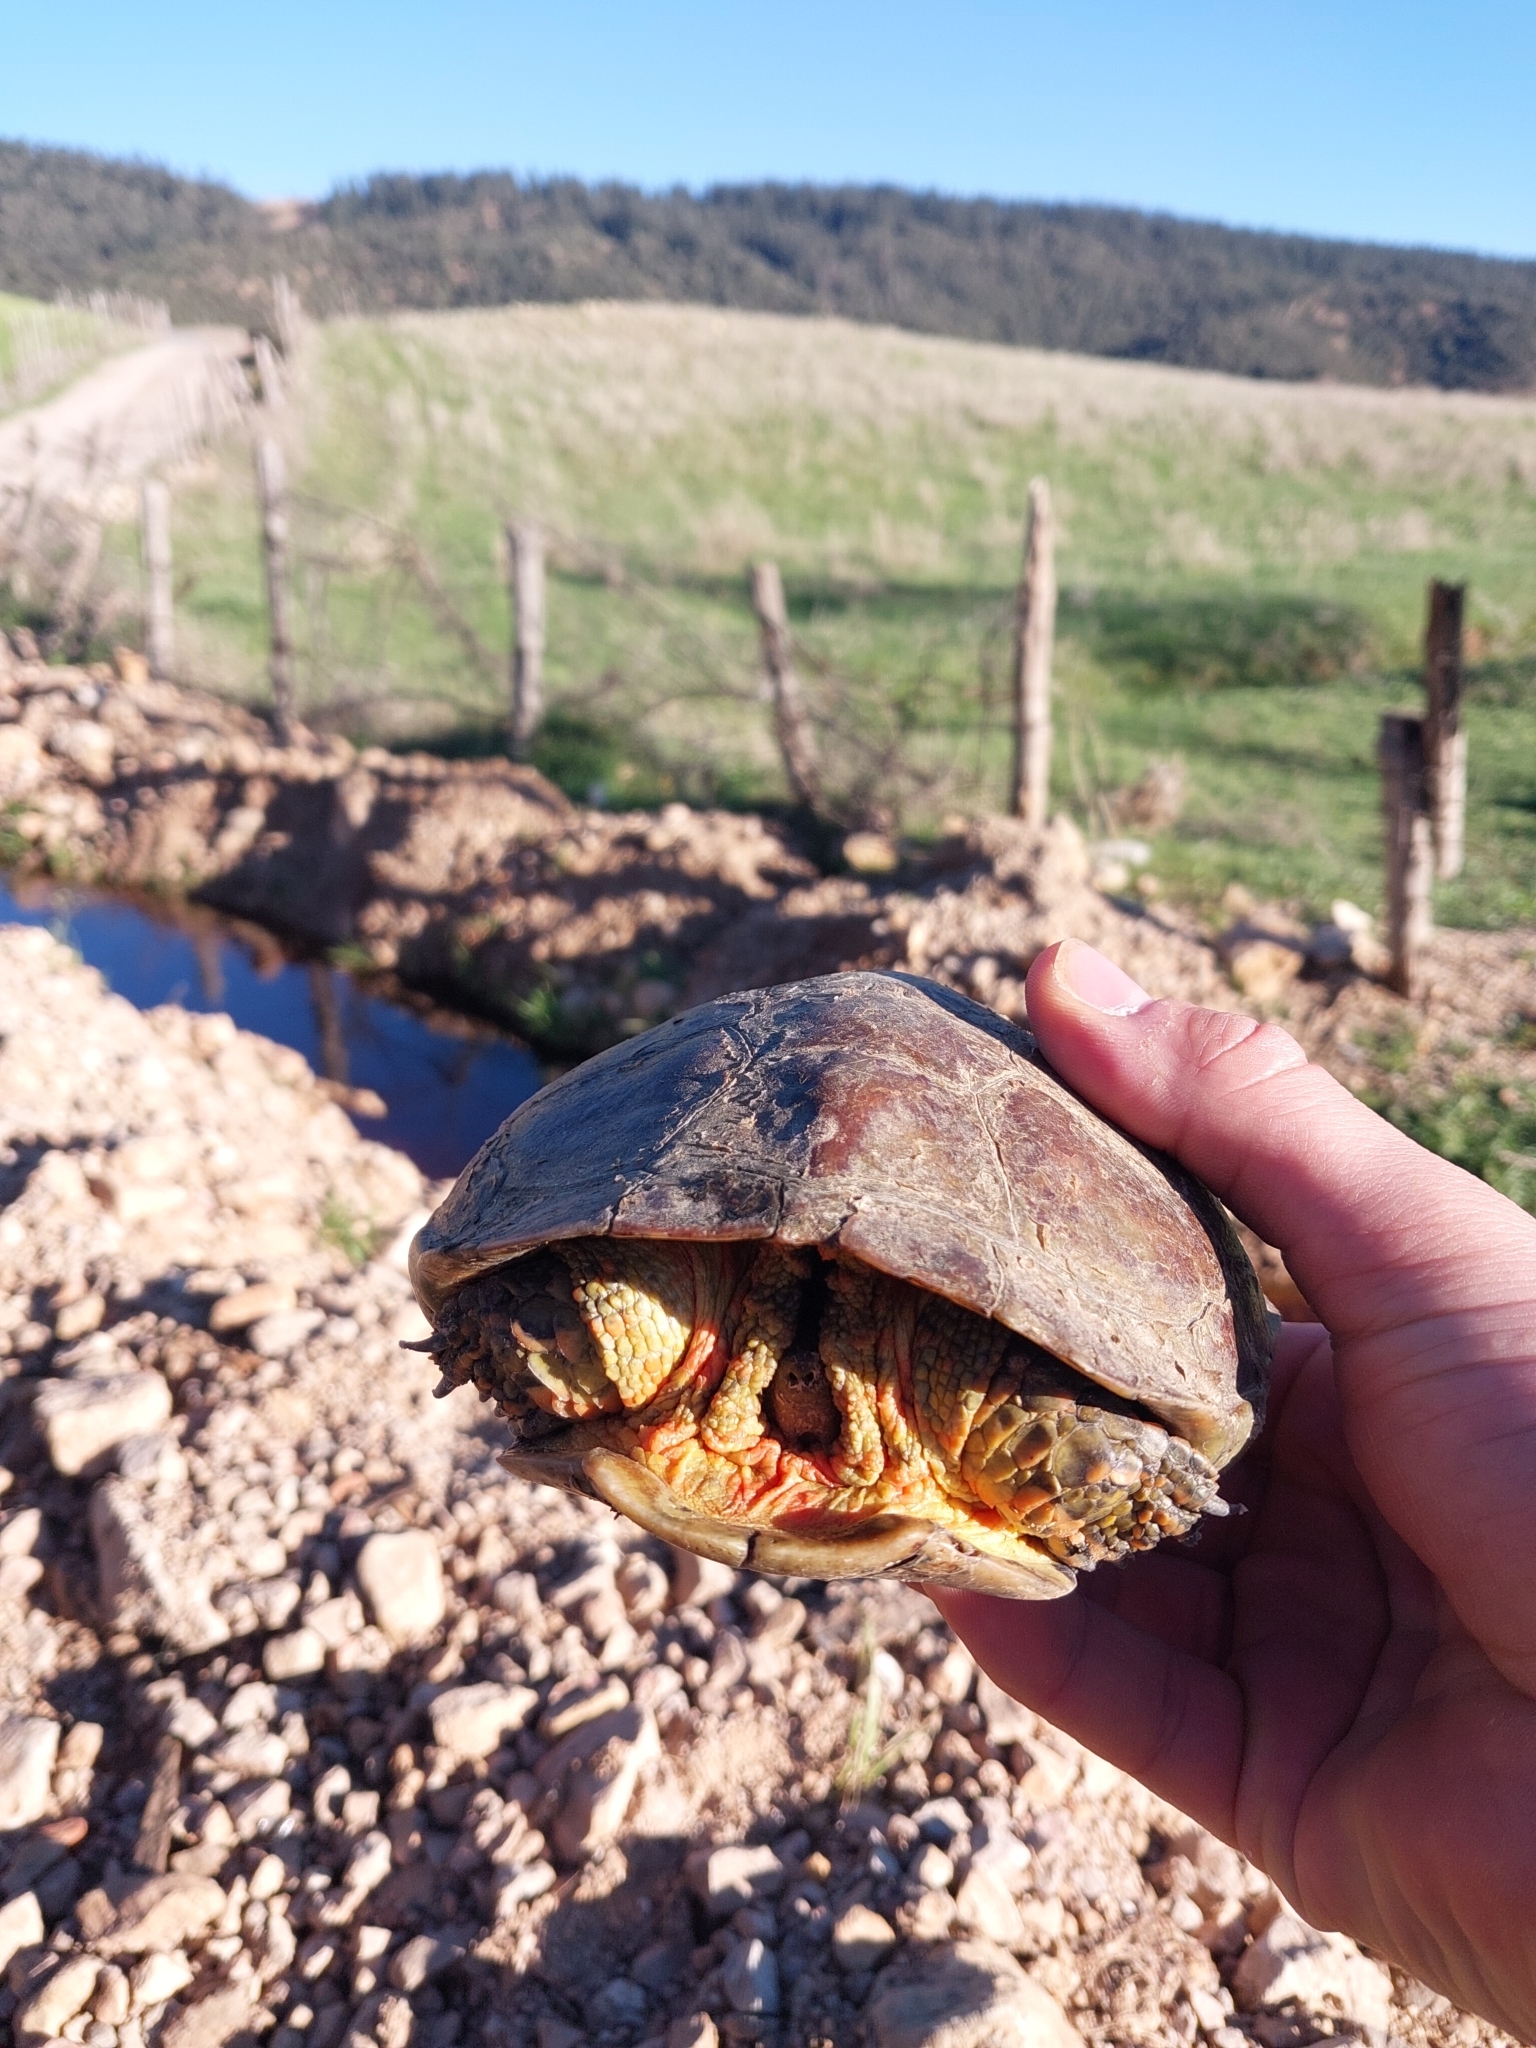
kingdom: Animalia
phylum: Chordata
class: Testudines
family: Geoemydidae
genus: Mauremys
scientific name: Mauremys leprosa
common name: Mediterranean pond turtle
